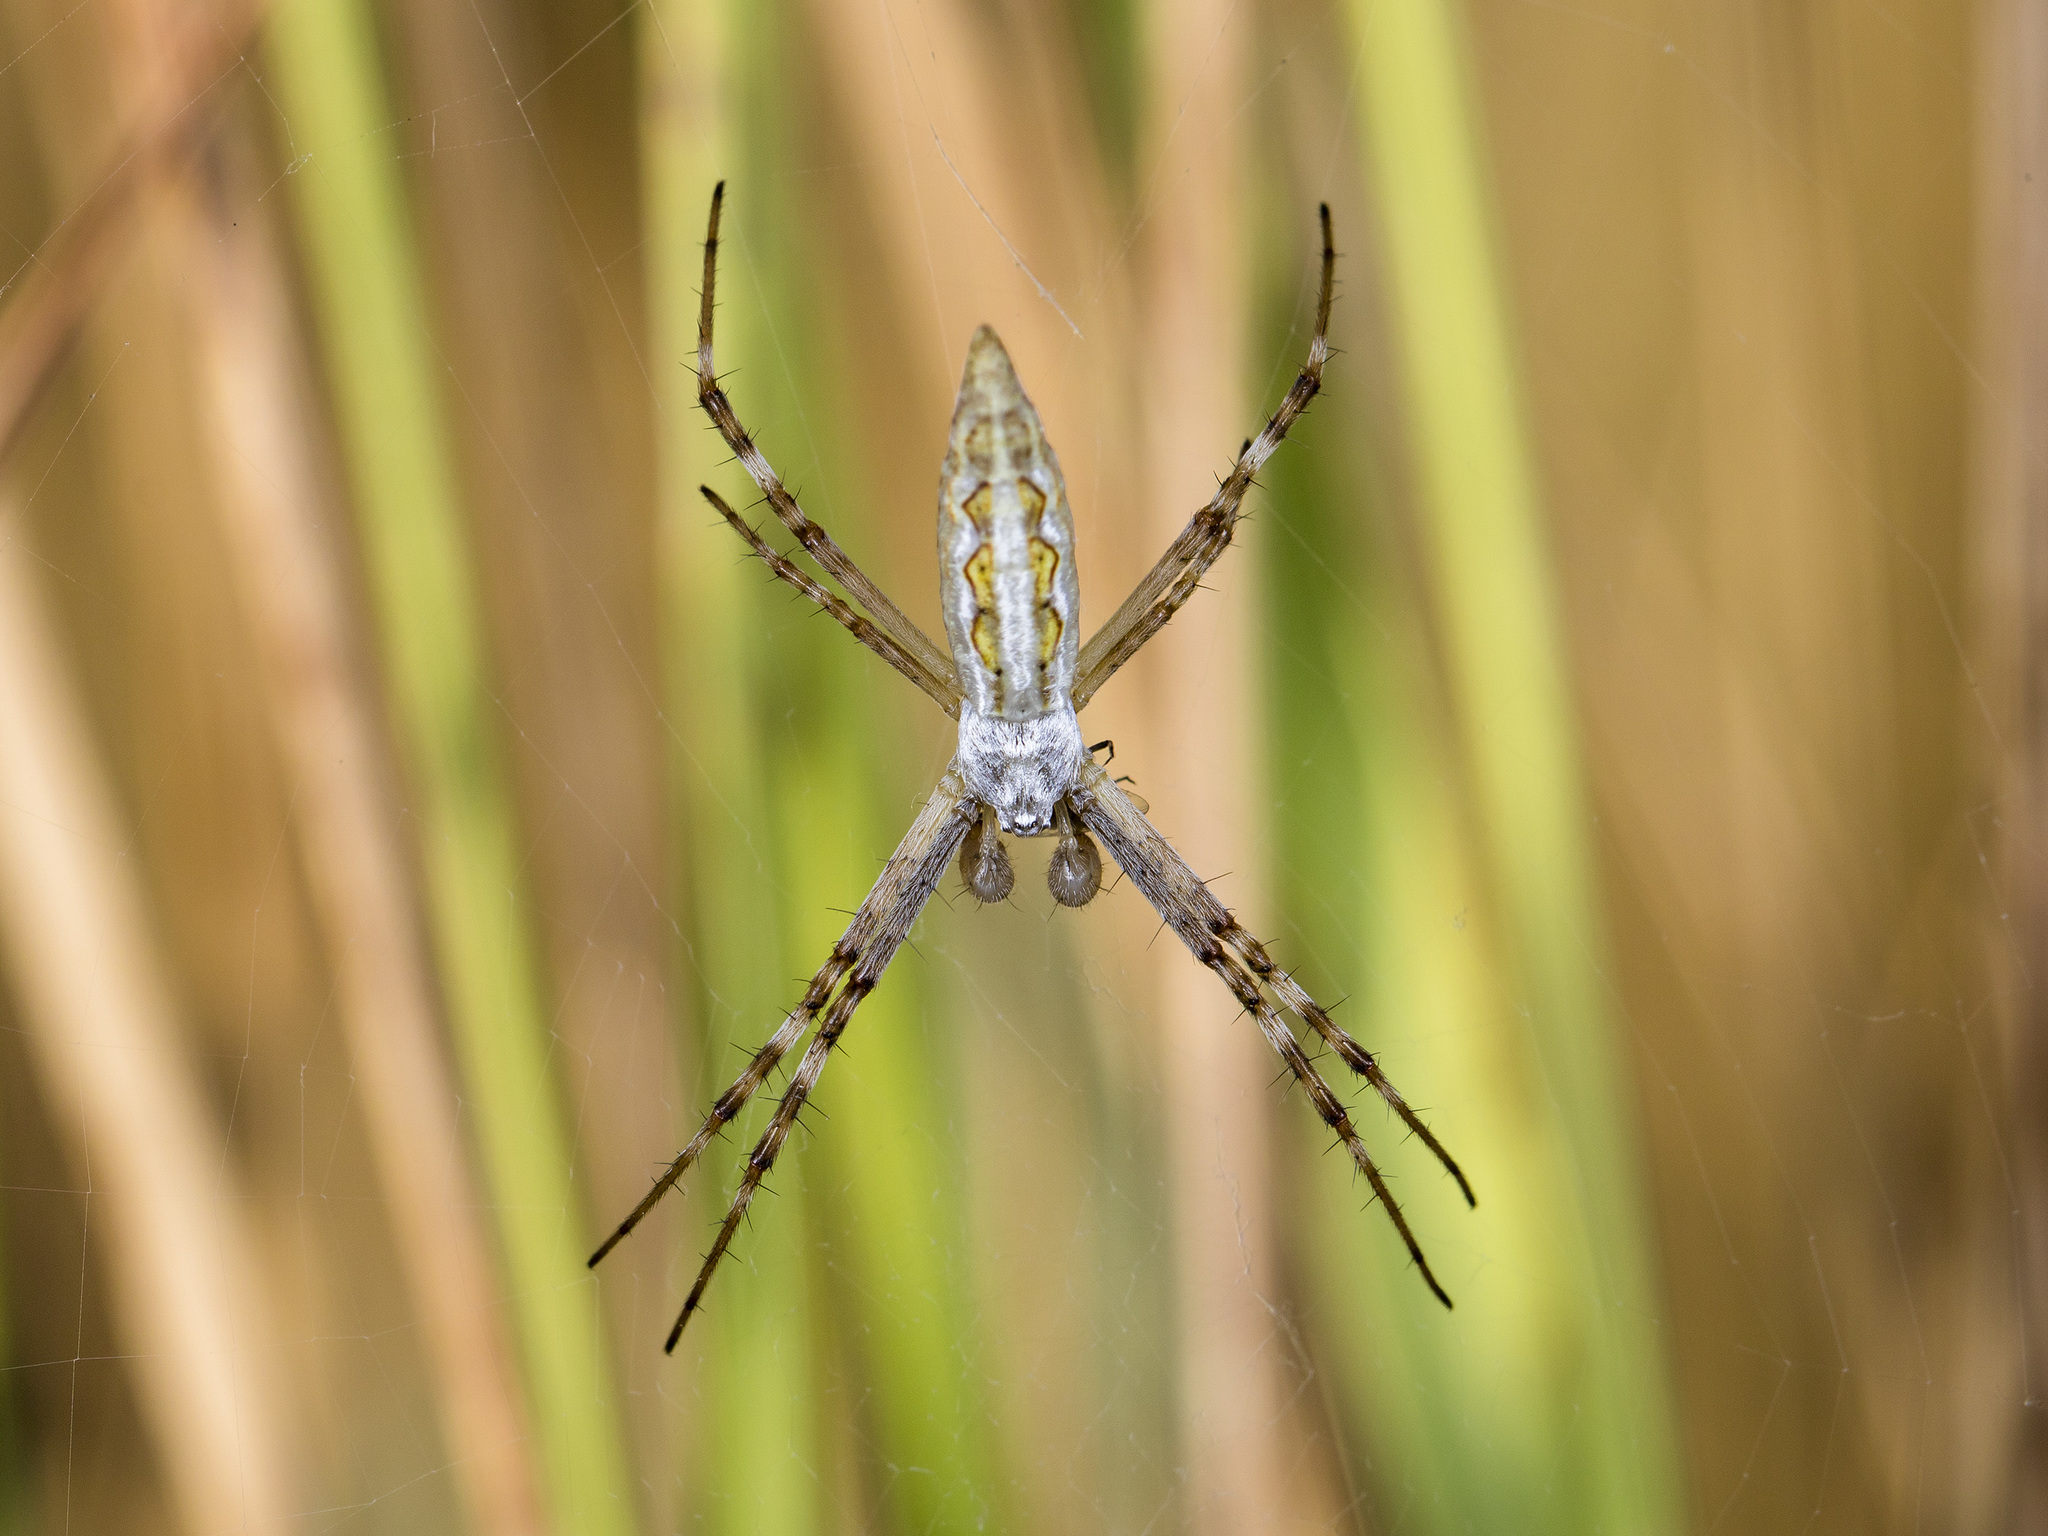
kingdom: Animalia
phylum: Arthropoda
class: Arachnida
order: Araneae
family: Araneidae
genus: Argiope
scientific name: Argiope lobata
